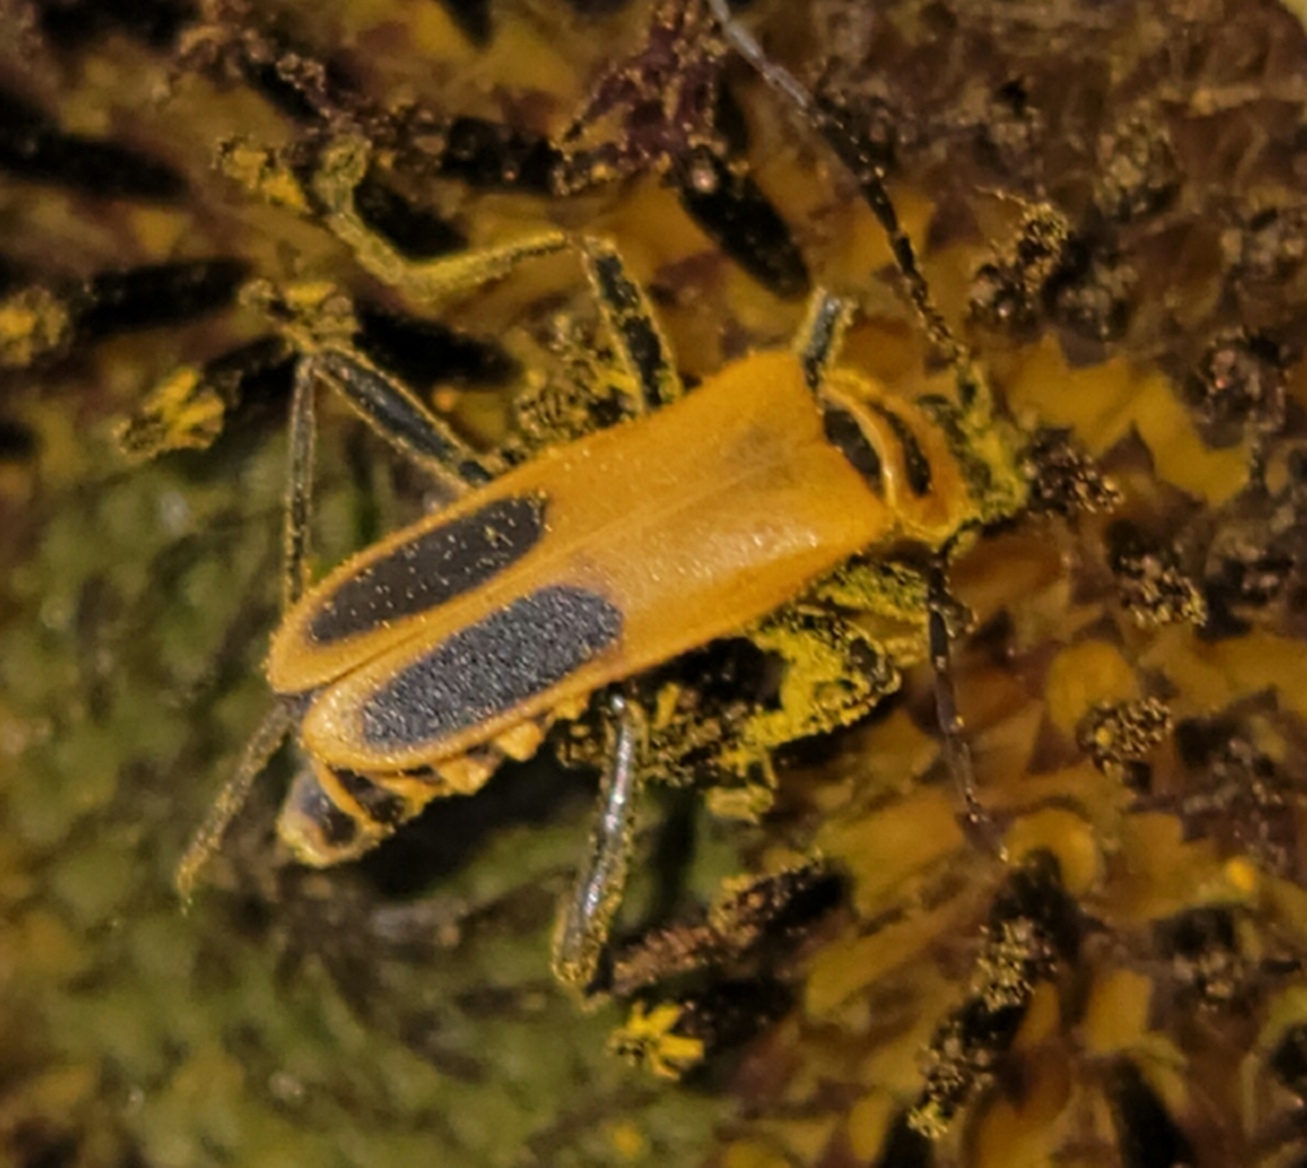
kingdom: Animalia
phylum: Arthropoda
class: Insecta
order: Coleoptera
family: Cantharidae
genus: Chauliognathus
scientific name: Chauliognathus pensylvanicus
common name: Goldenrod soldier beetle
